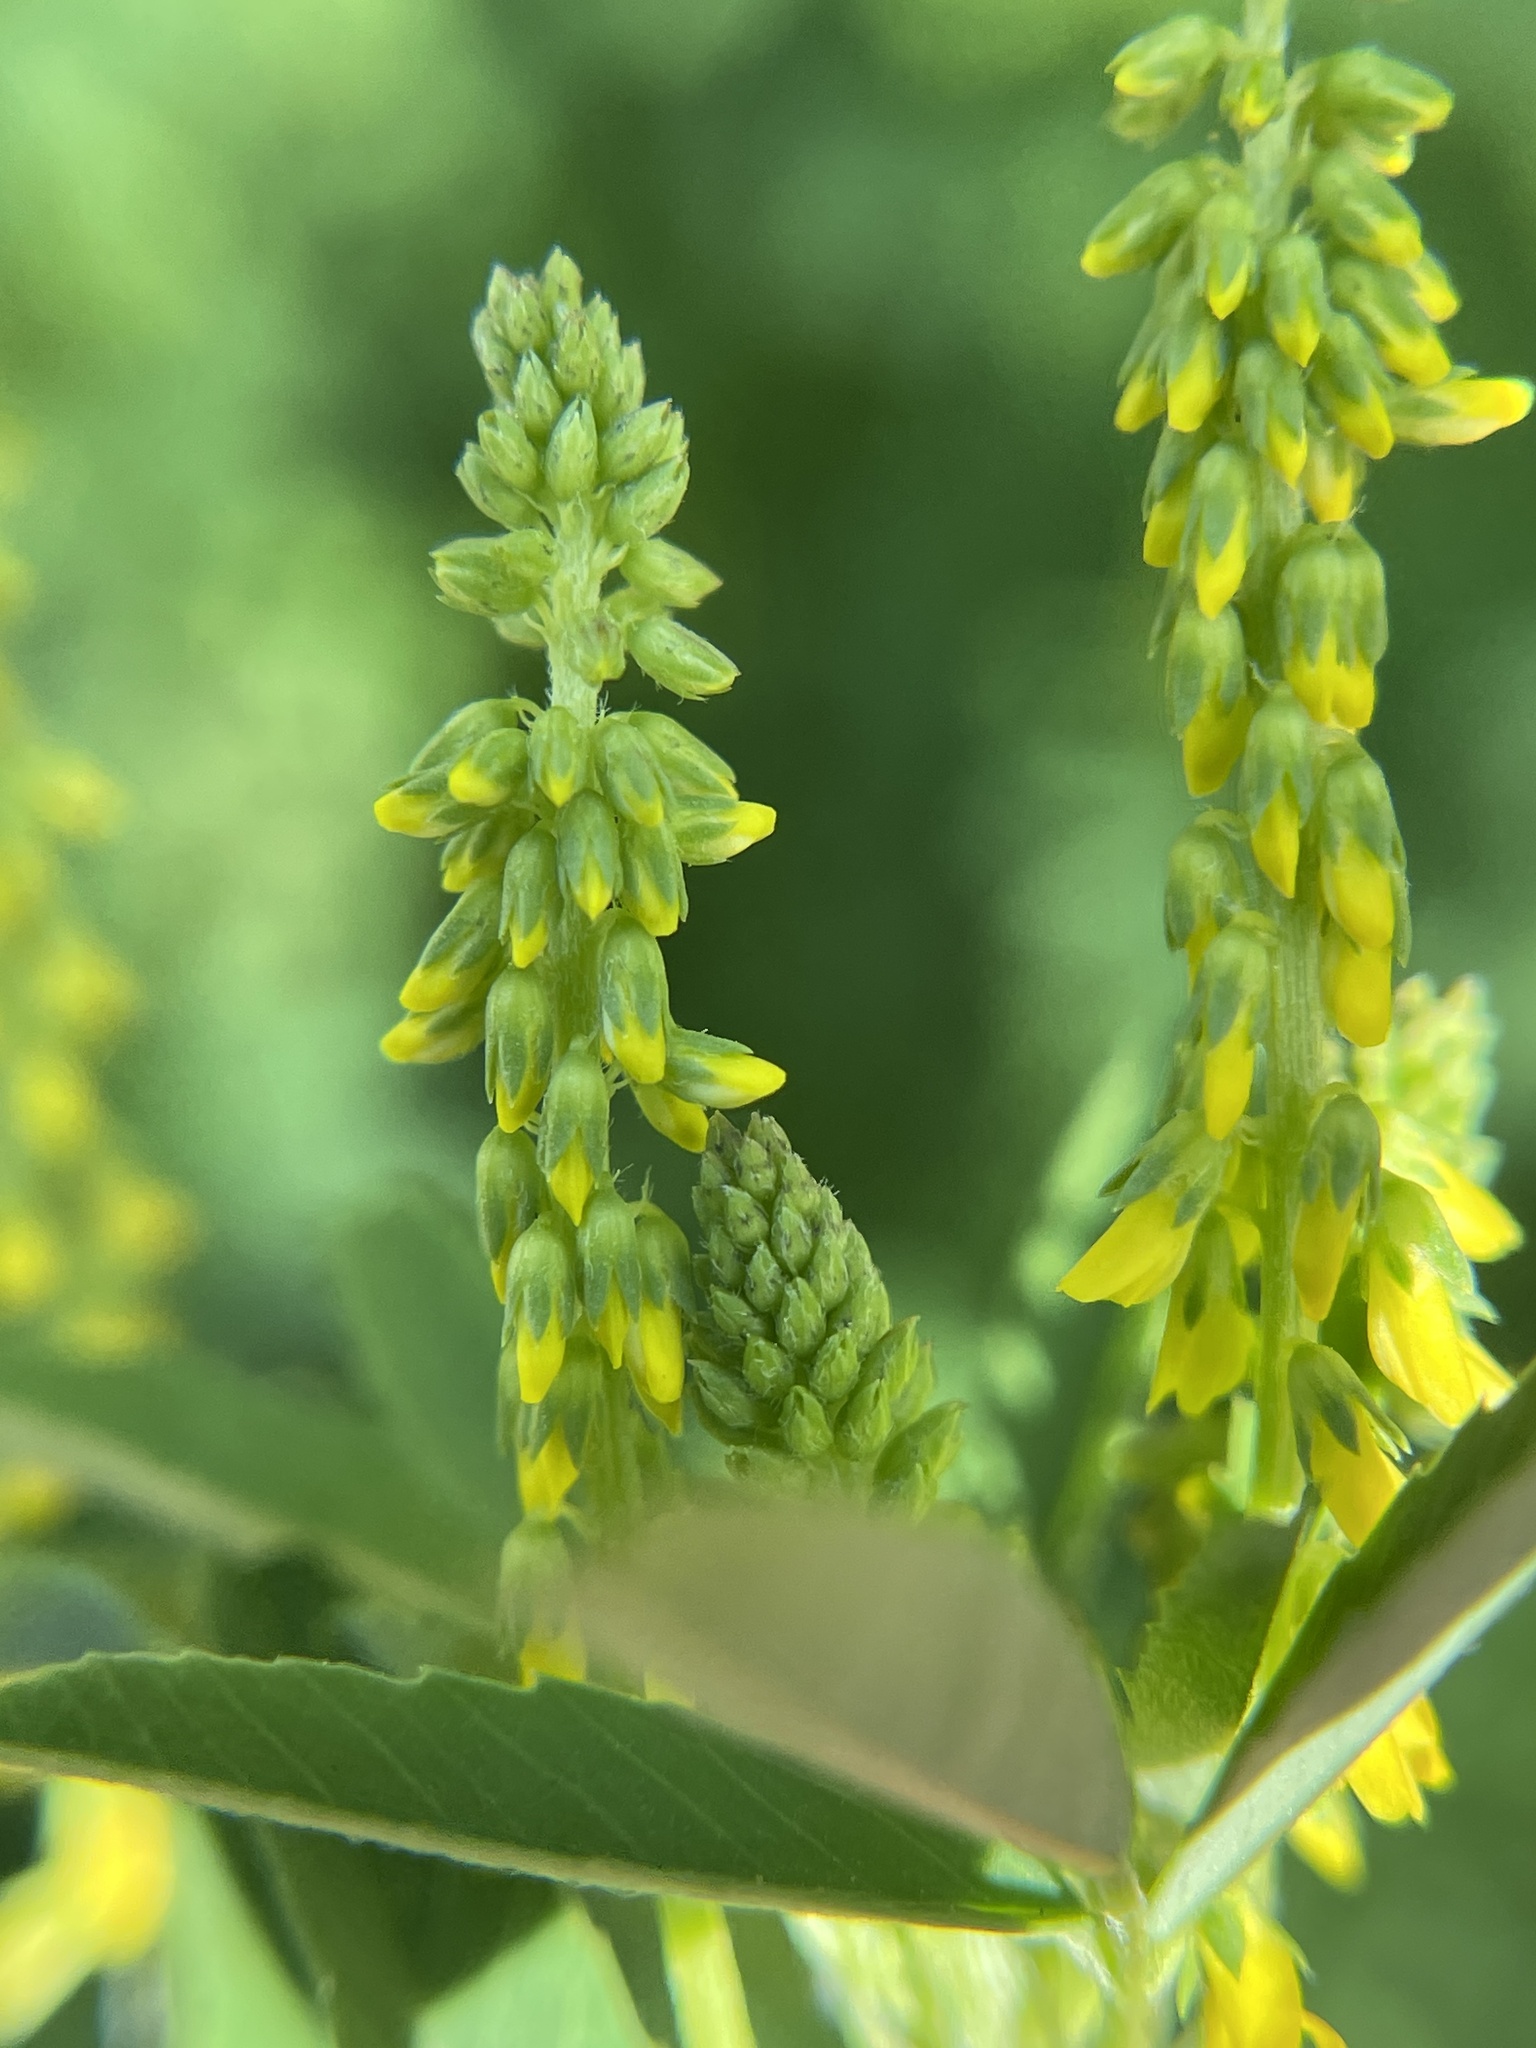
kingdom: Plantae
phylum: Tracheophyta
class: Magnoliopsida
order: Fabales
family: Fabaceae
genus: Melilotus
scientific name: Melilotus indicus
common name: Small melilot
